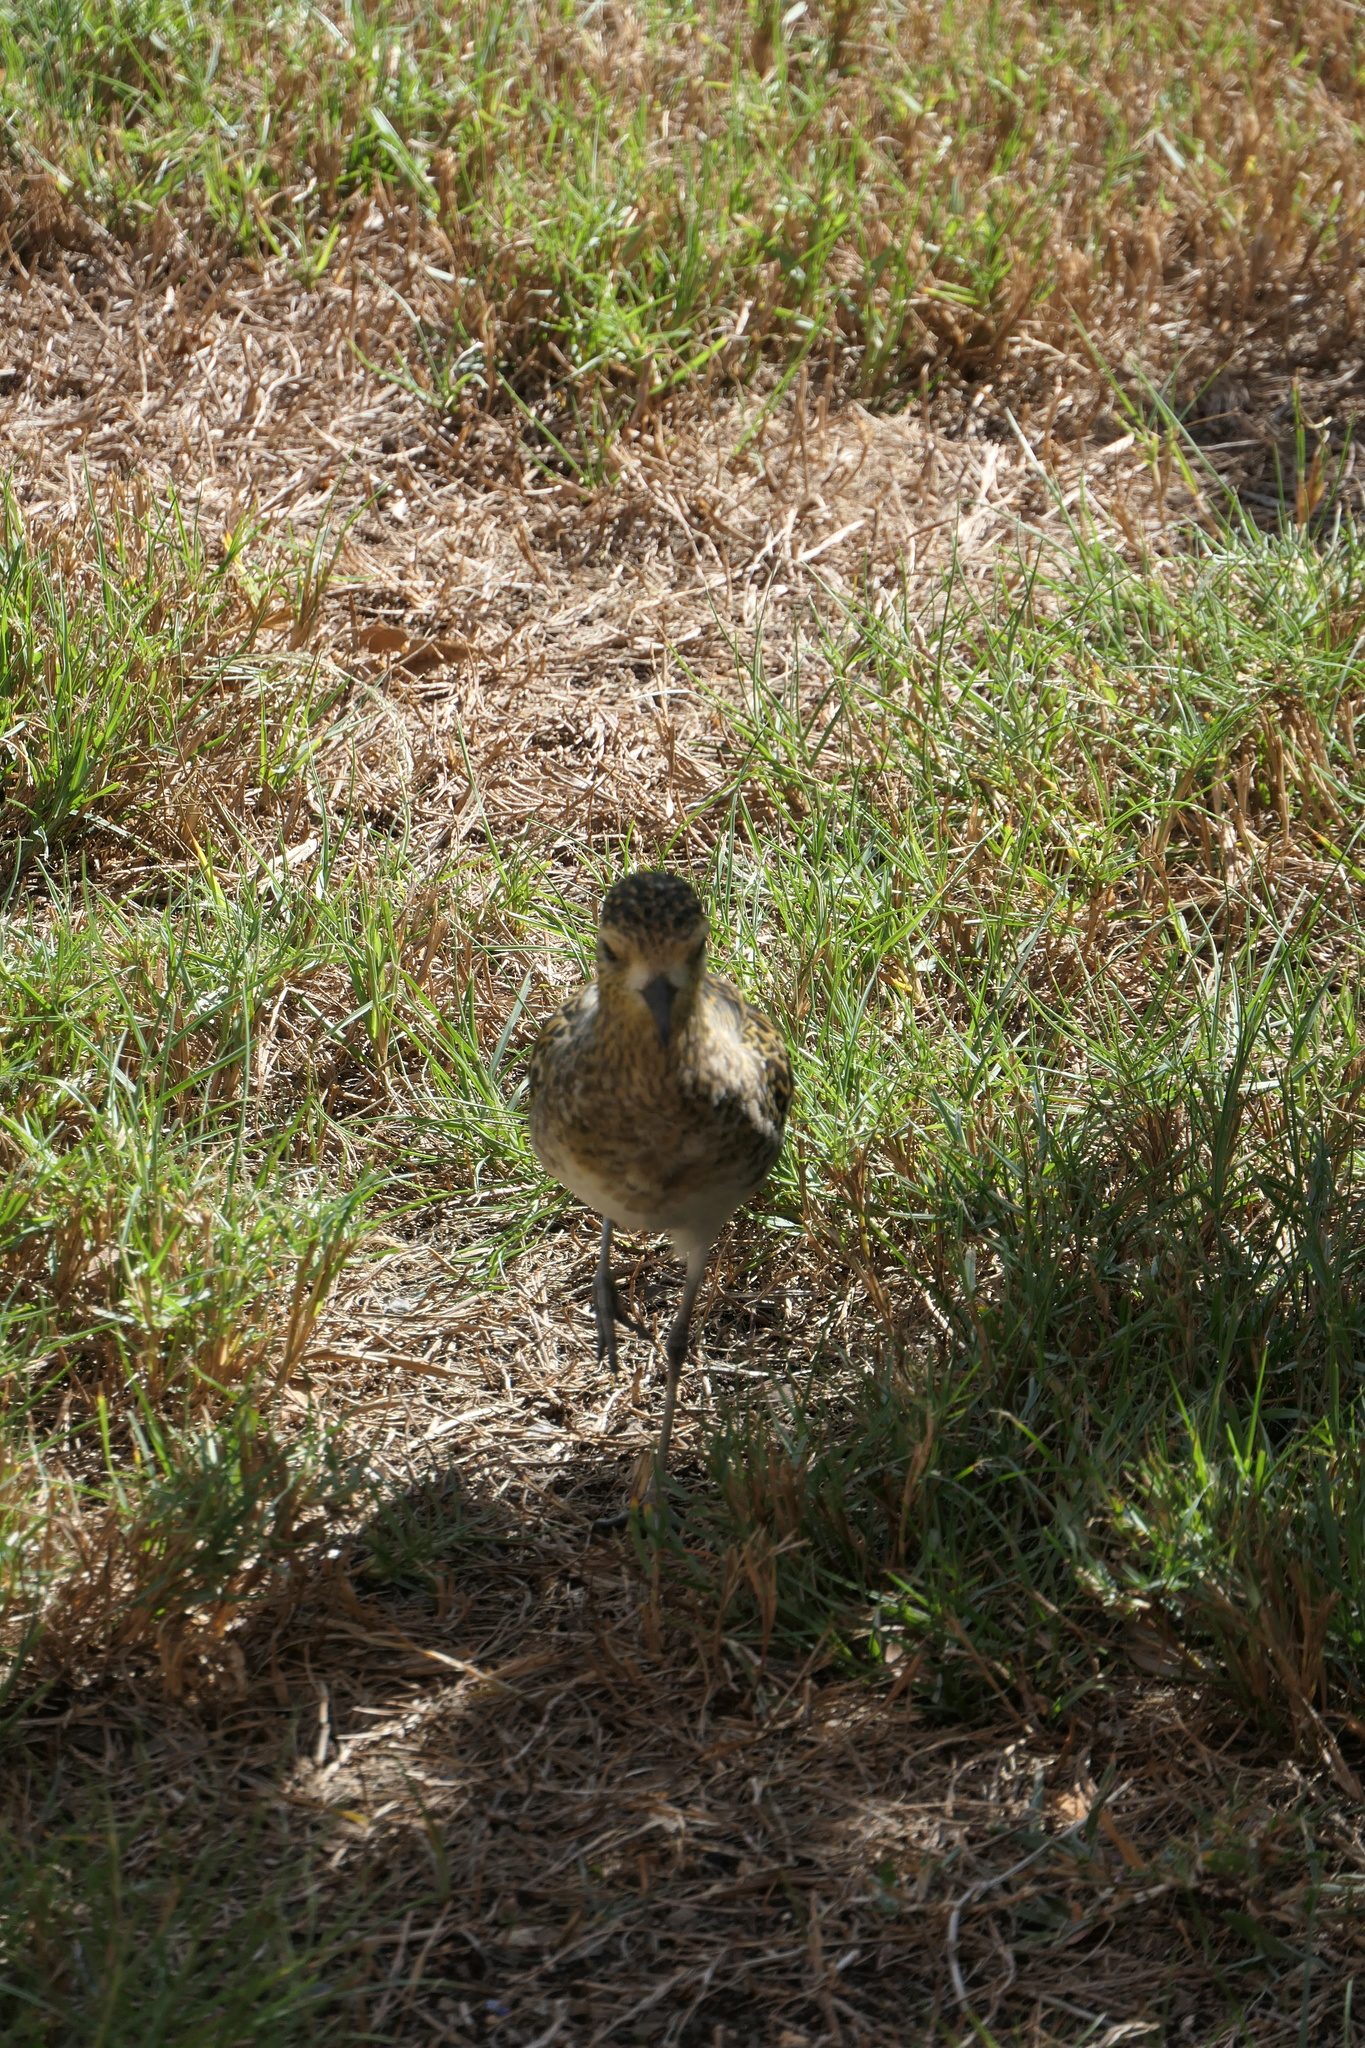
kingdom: Animalia
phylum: Chordata
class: Aves
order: Charadriiformes
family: Charadriidae
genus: Pluvialis
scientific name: Pluvialis fulva
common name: Pacific golden plover
